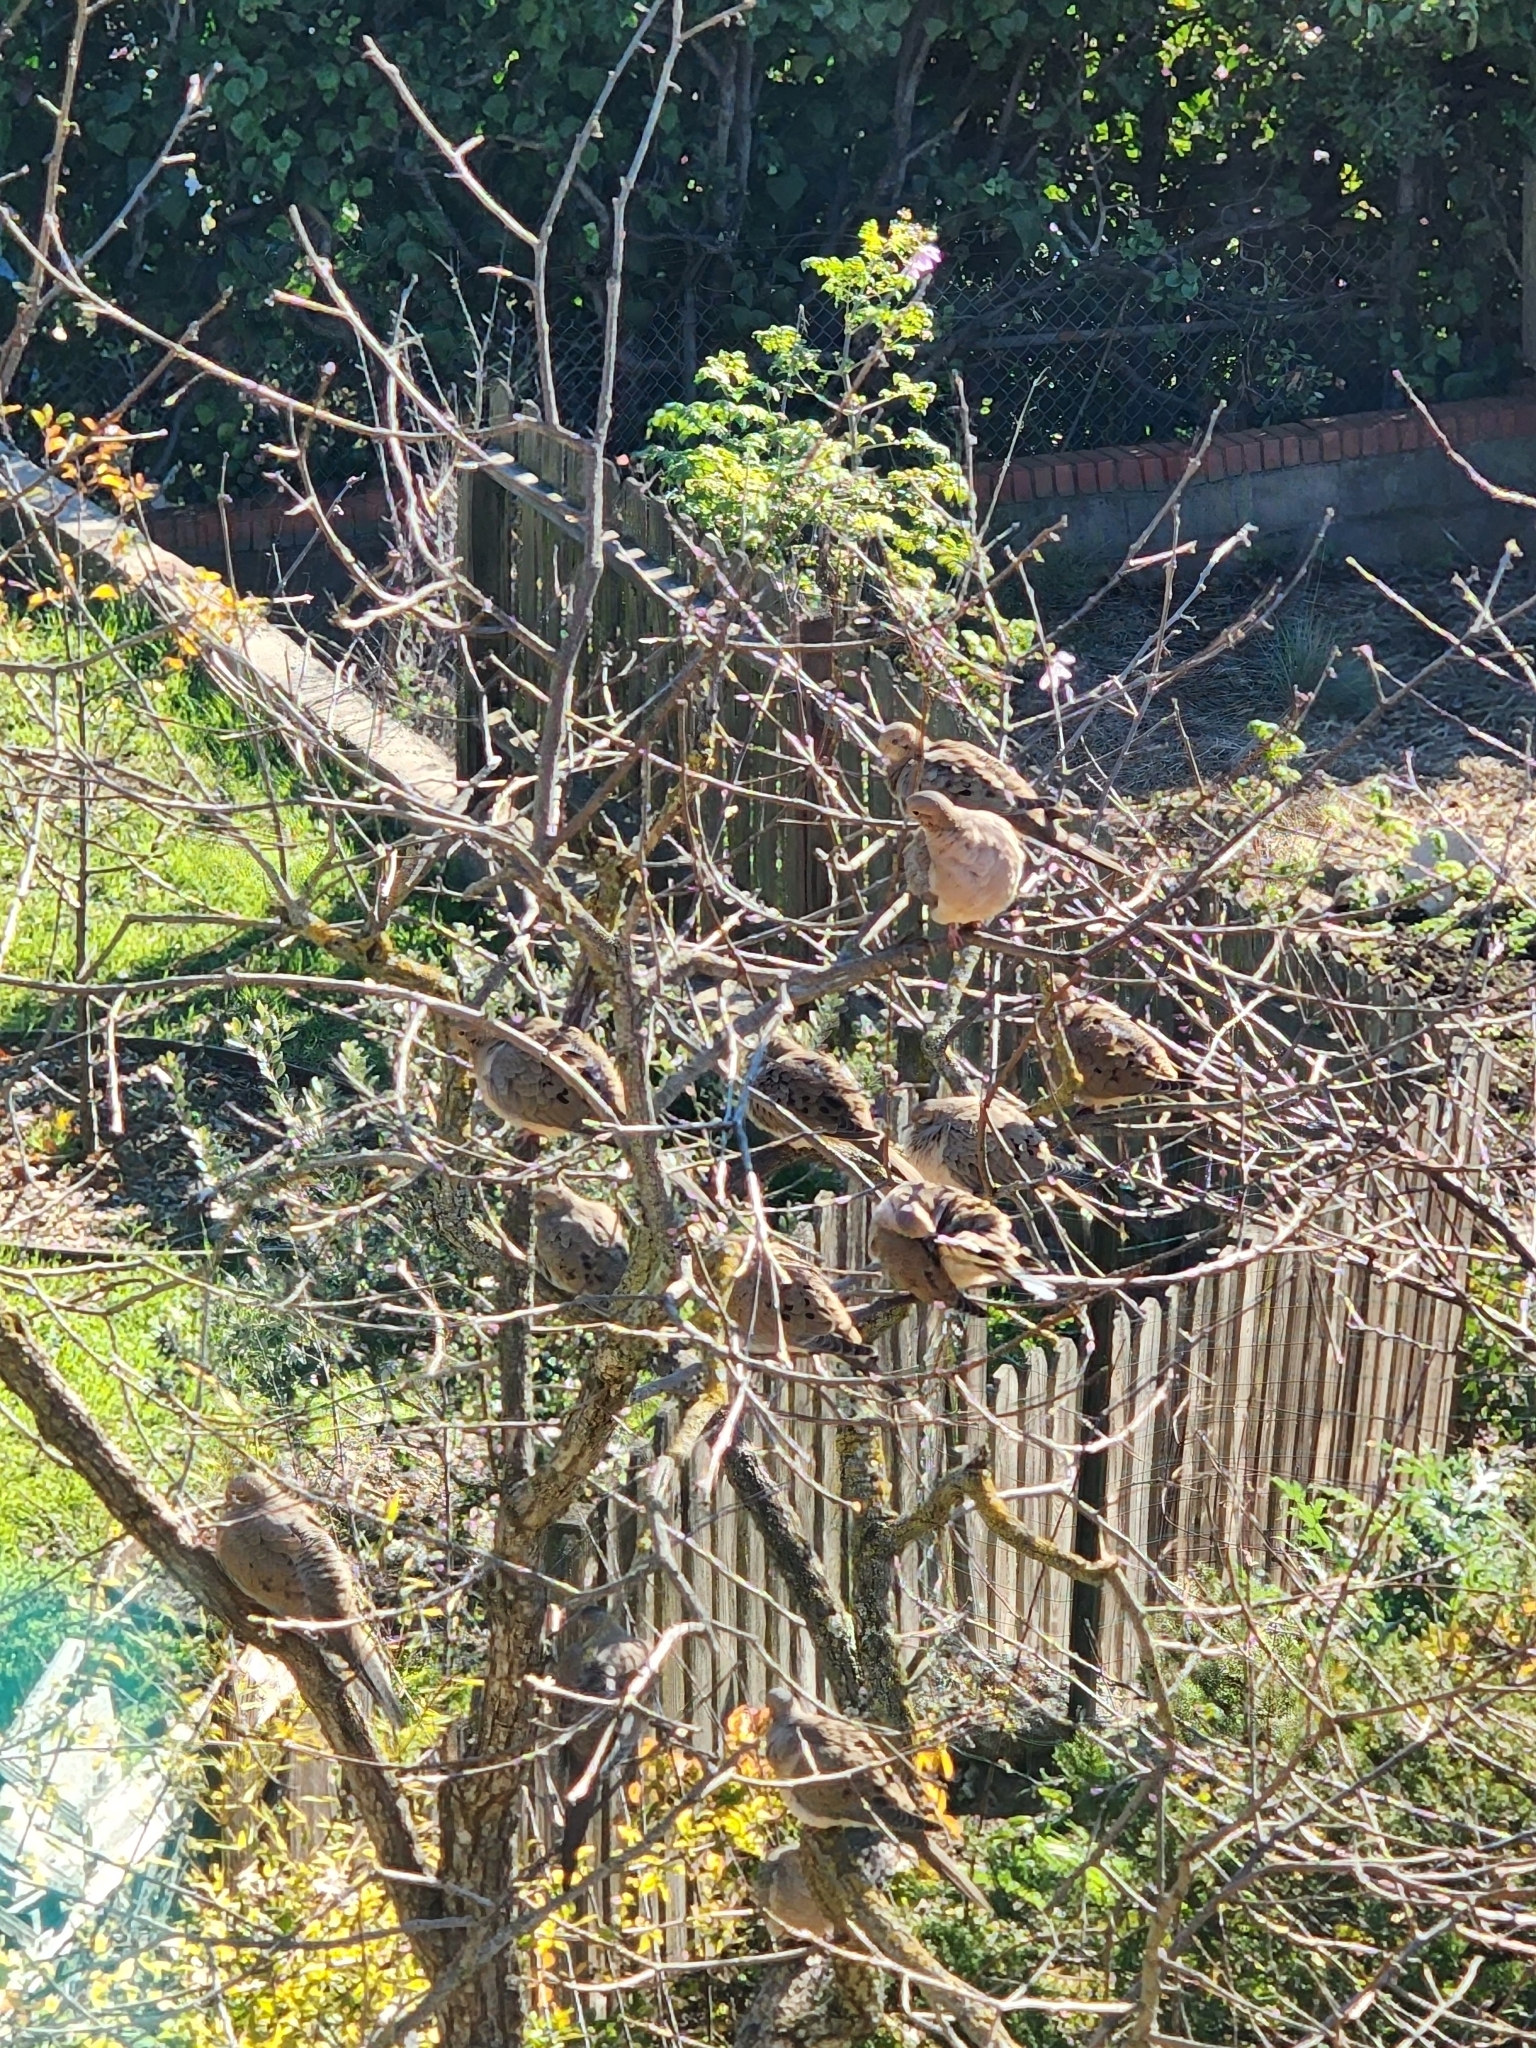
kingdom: Animalia
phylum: Chordata
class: Aves
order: Columbiformes
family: Columbidae
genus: Zenaida
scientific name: Zenaida macroura
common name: Mourning dove
